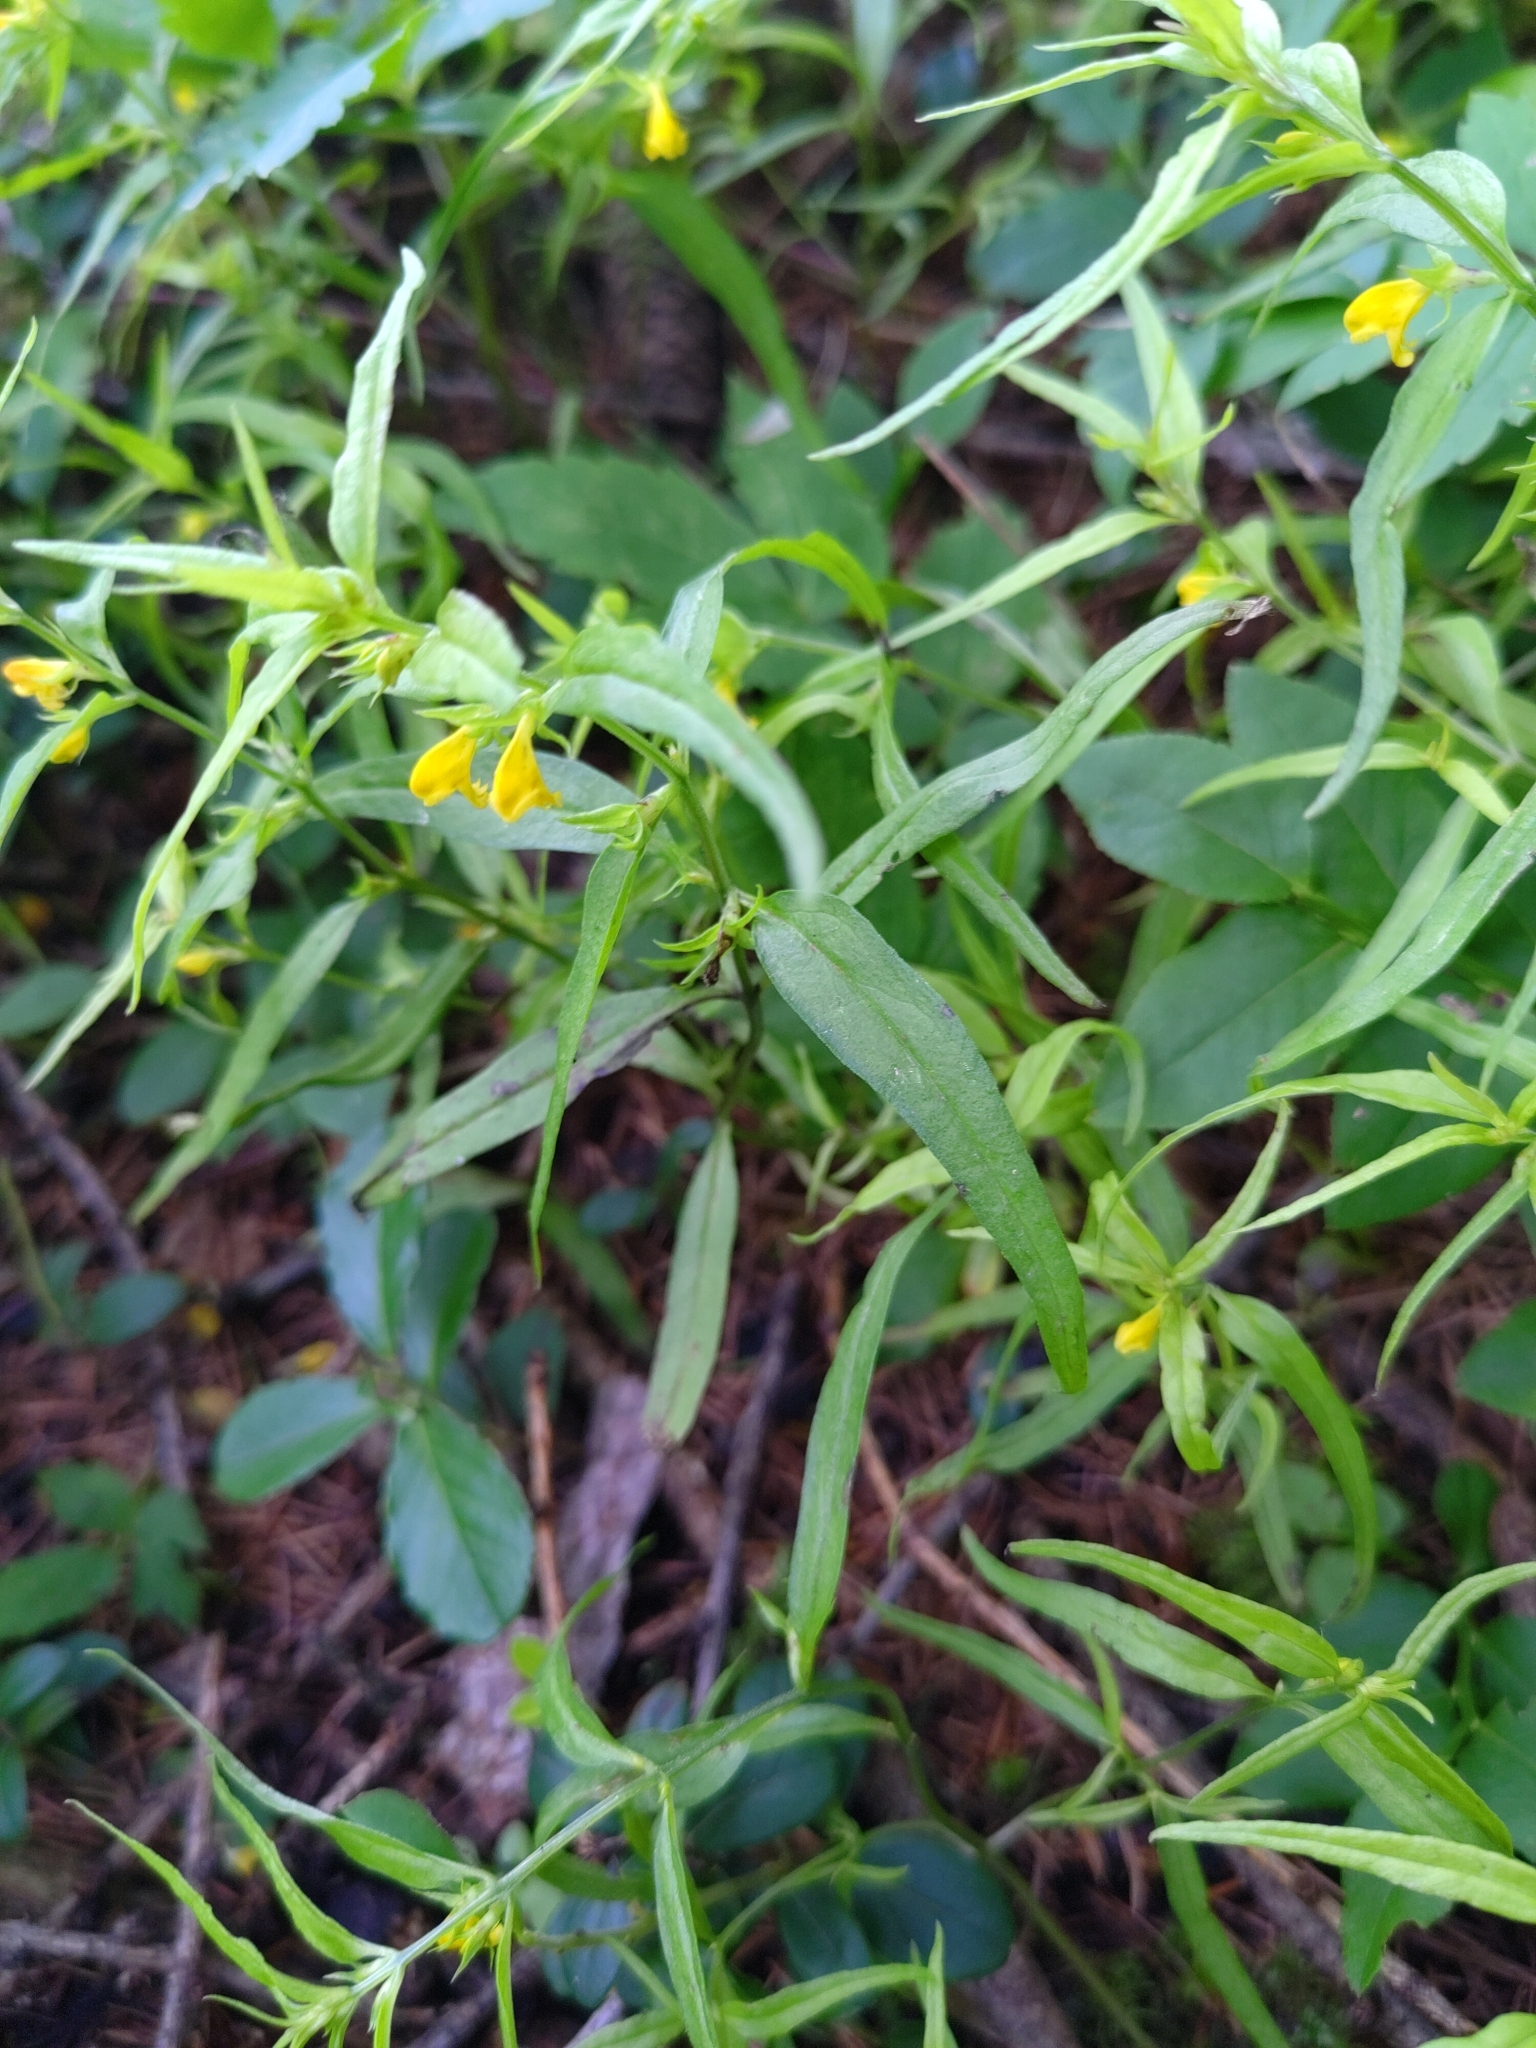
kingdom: Plantae
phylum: Tracheophyta
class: Magnoliopsida
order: Lamiales
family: Orobanchaceae
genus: Melampyrum
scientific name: Melampyrum sylvaticum
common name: Small cow-wheat
